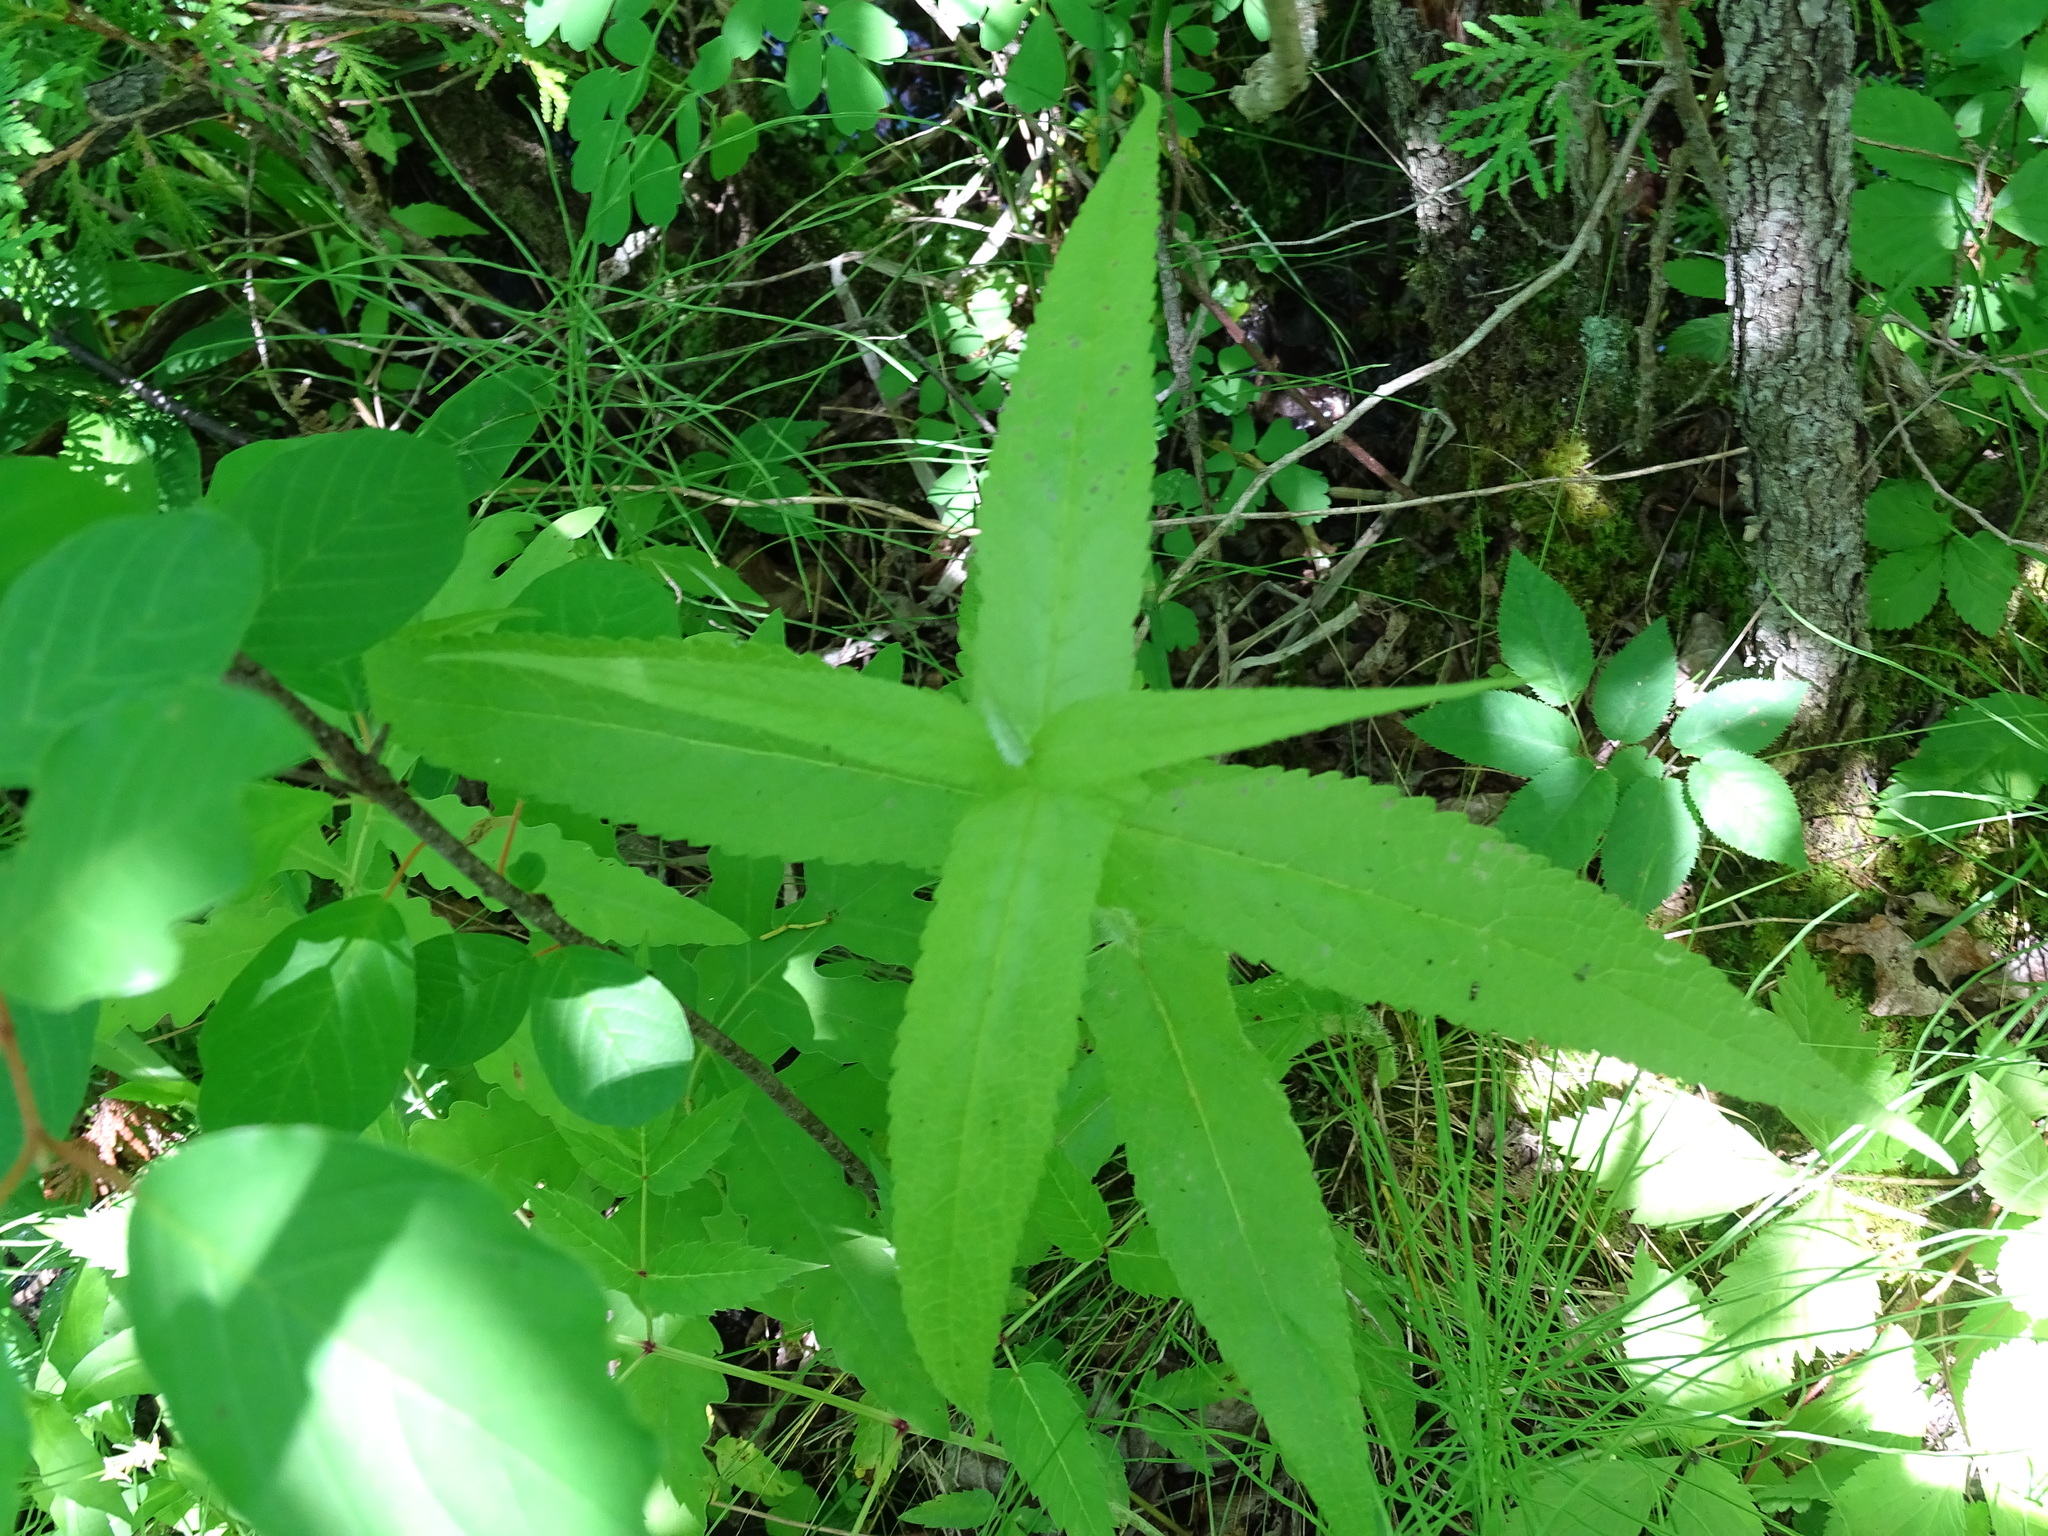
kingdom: Plantae
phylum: Tracheophyta
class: Magnoliopsida
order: Asterales
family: Asteraceae
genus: Eupatorium
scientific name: Eupatorium perfoliatum
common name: Boneset
